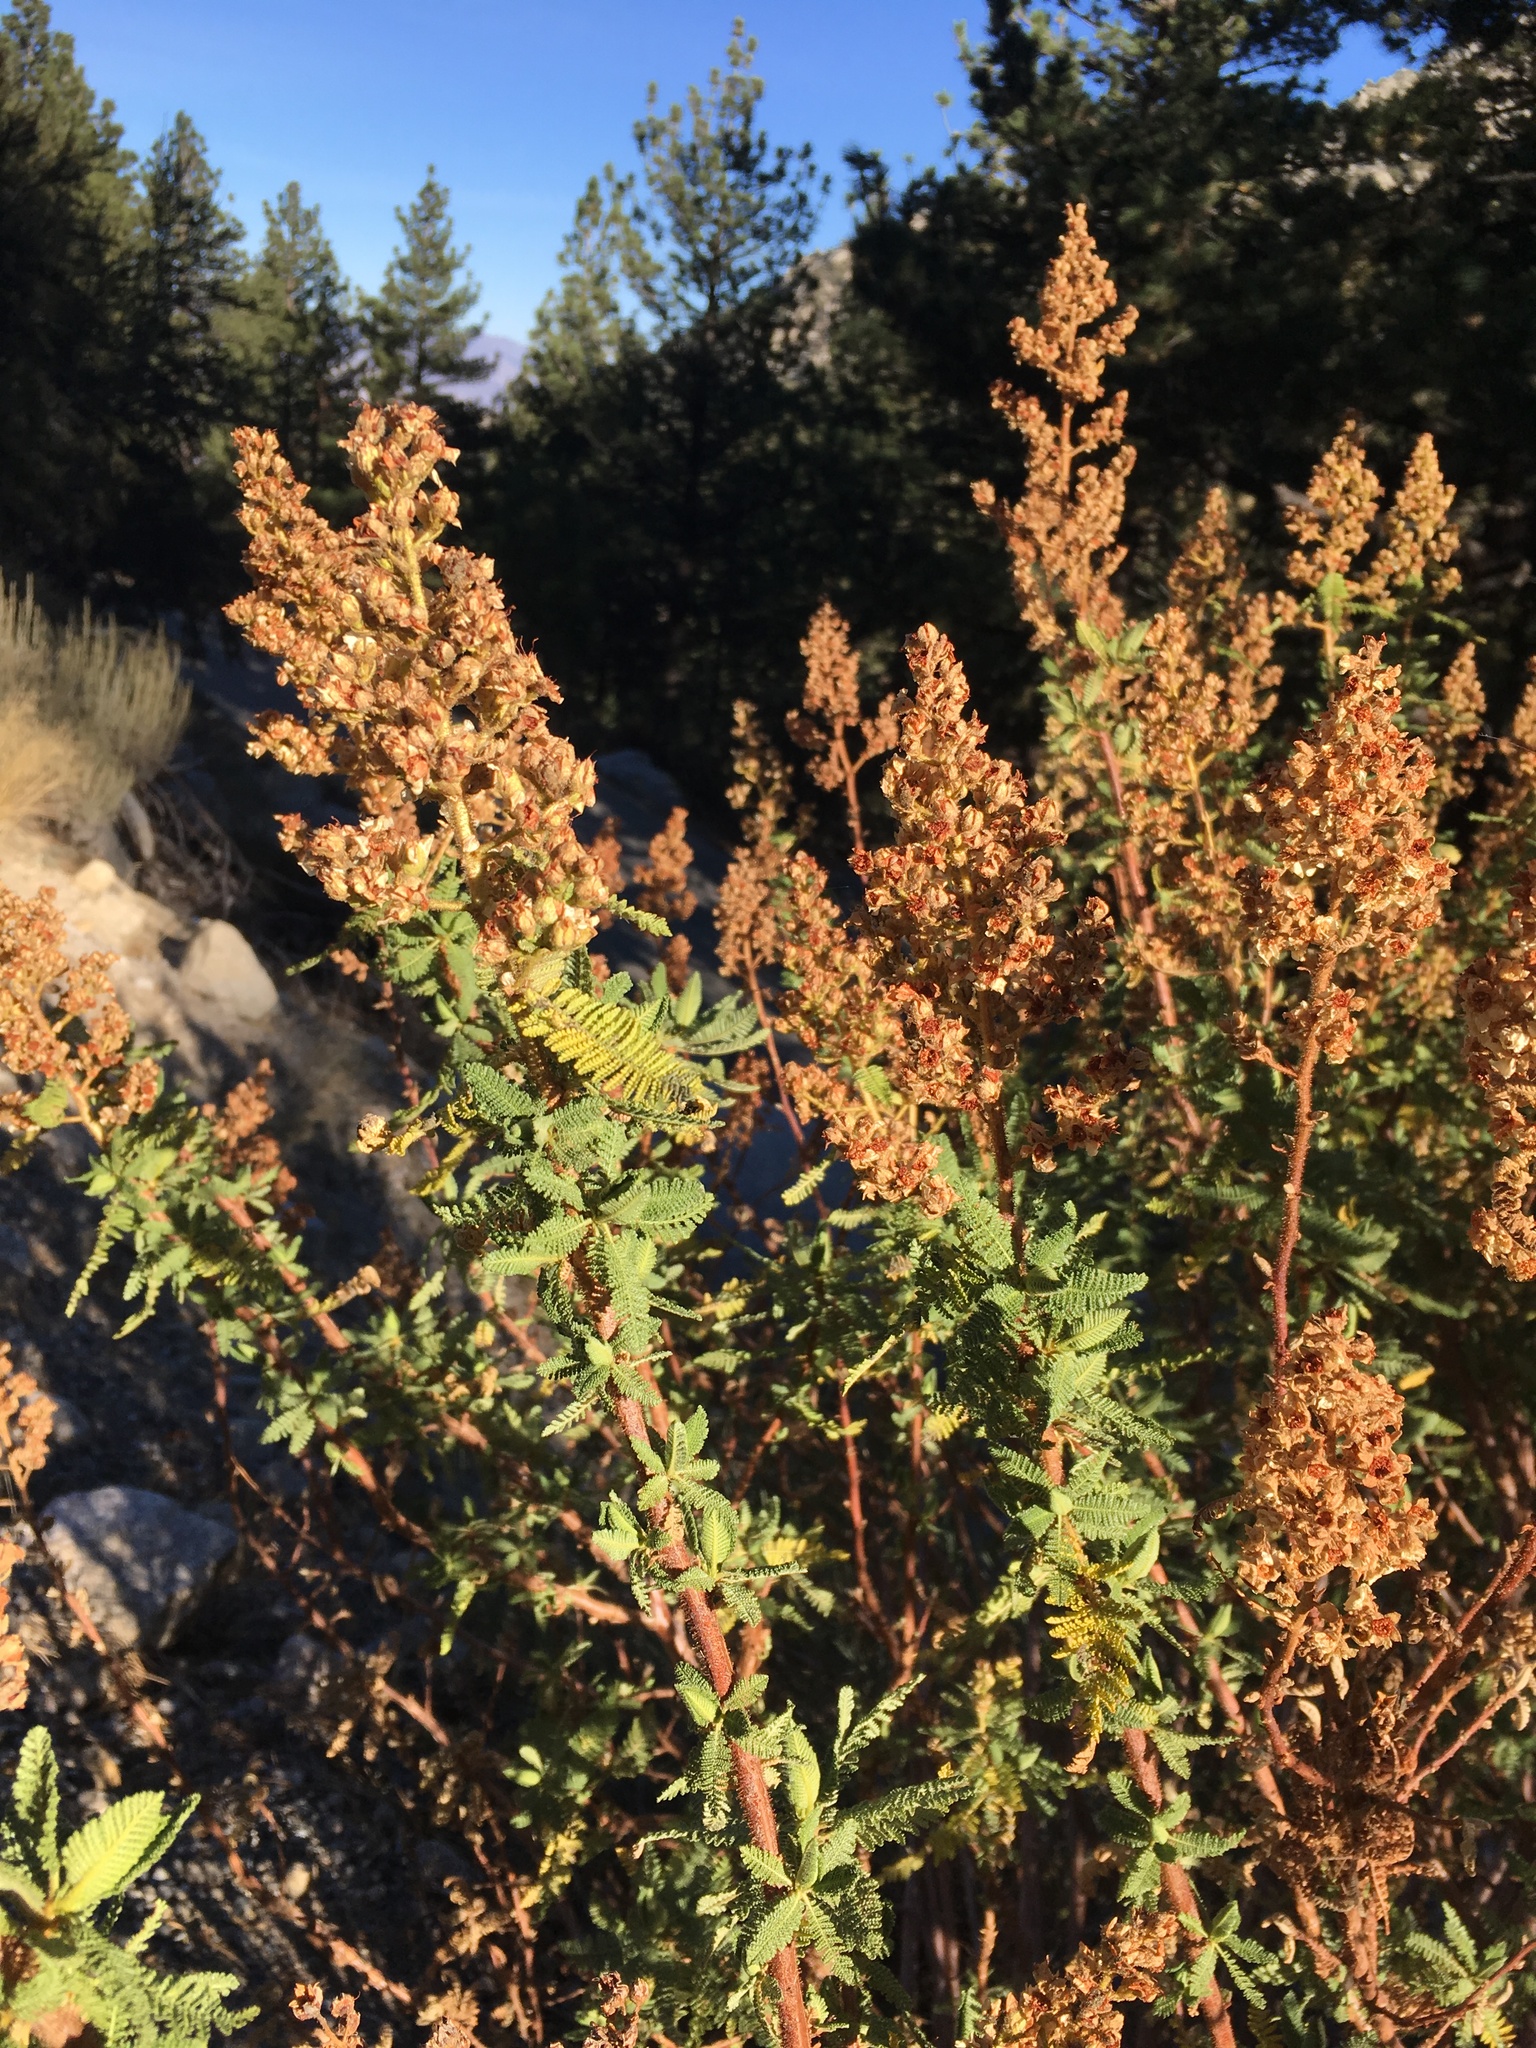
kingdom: Plantae
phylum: Tracheophyta
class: Magnoliopsida
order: Rosales
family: Rosaceae
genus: Chamaebatiaria
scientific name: Chamaebatiaria millefolium
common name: Fernbush
